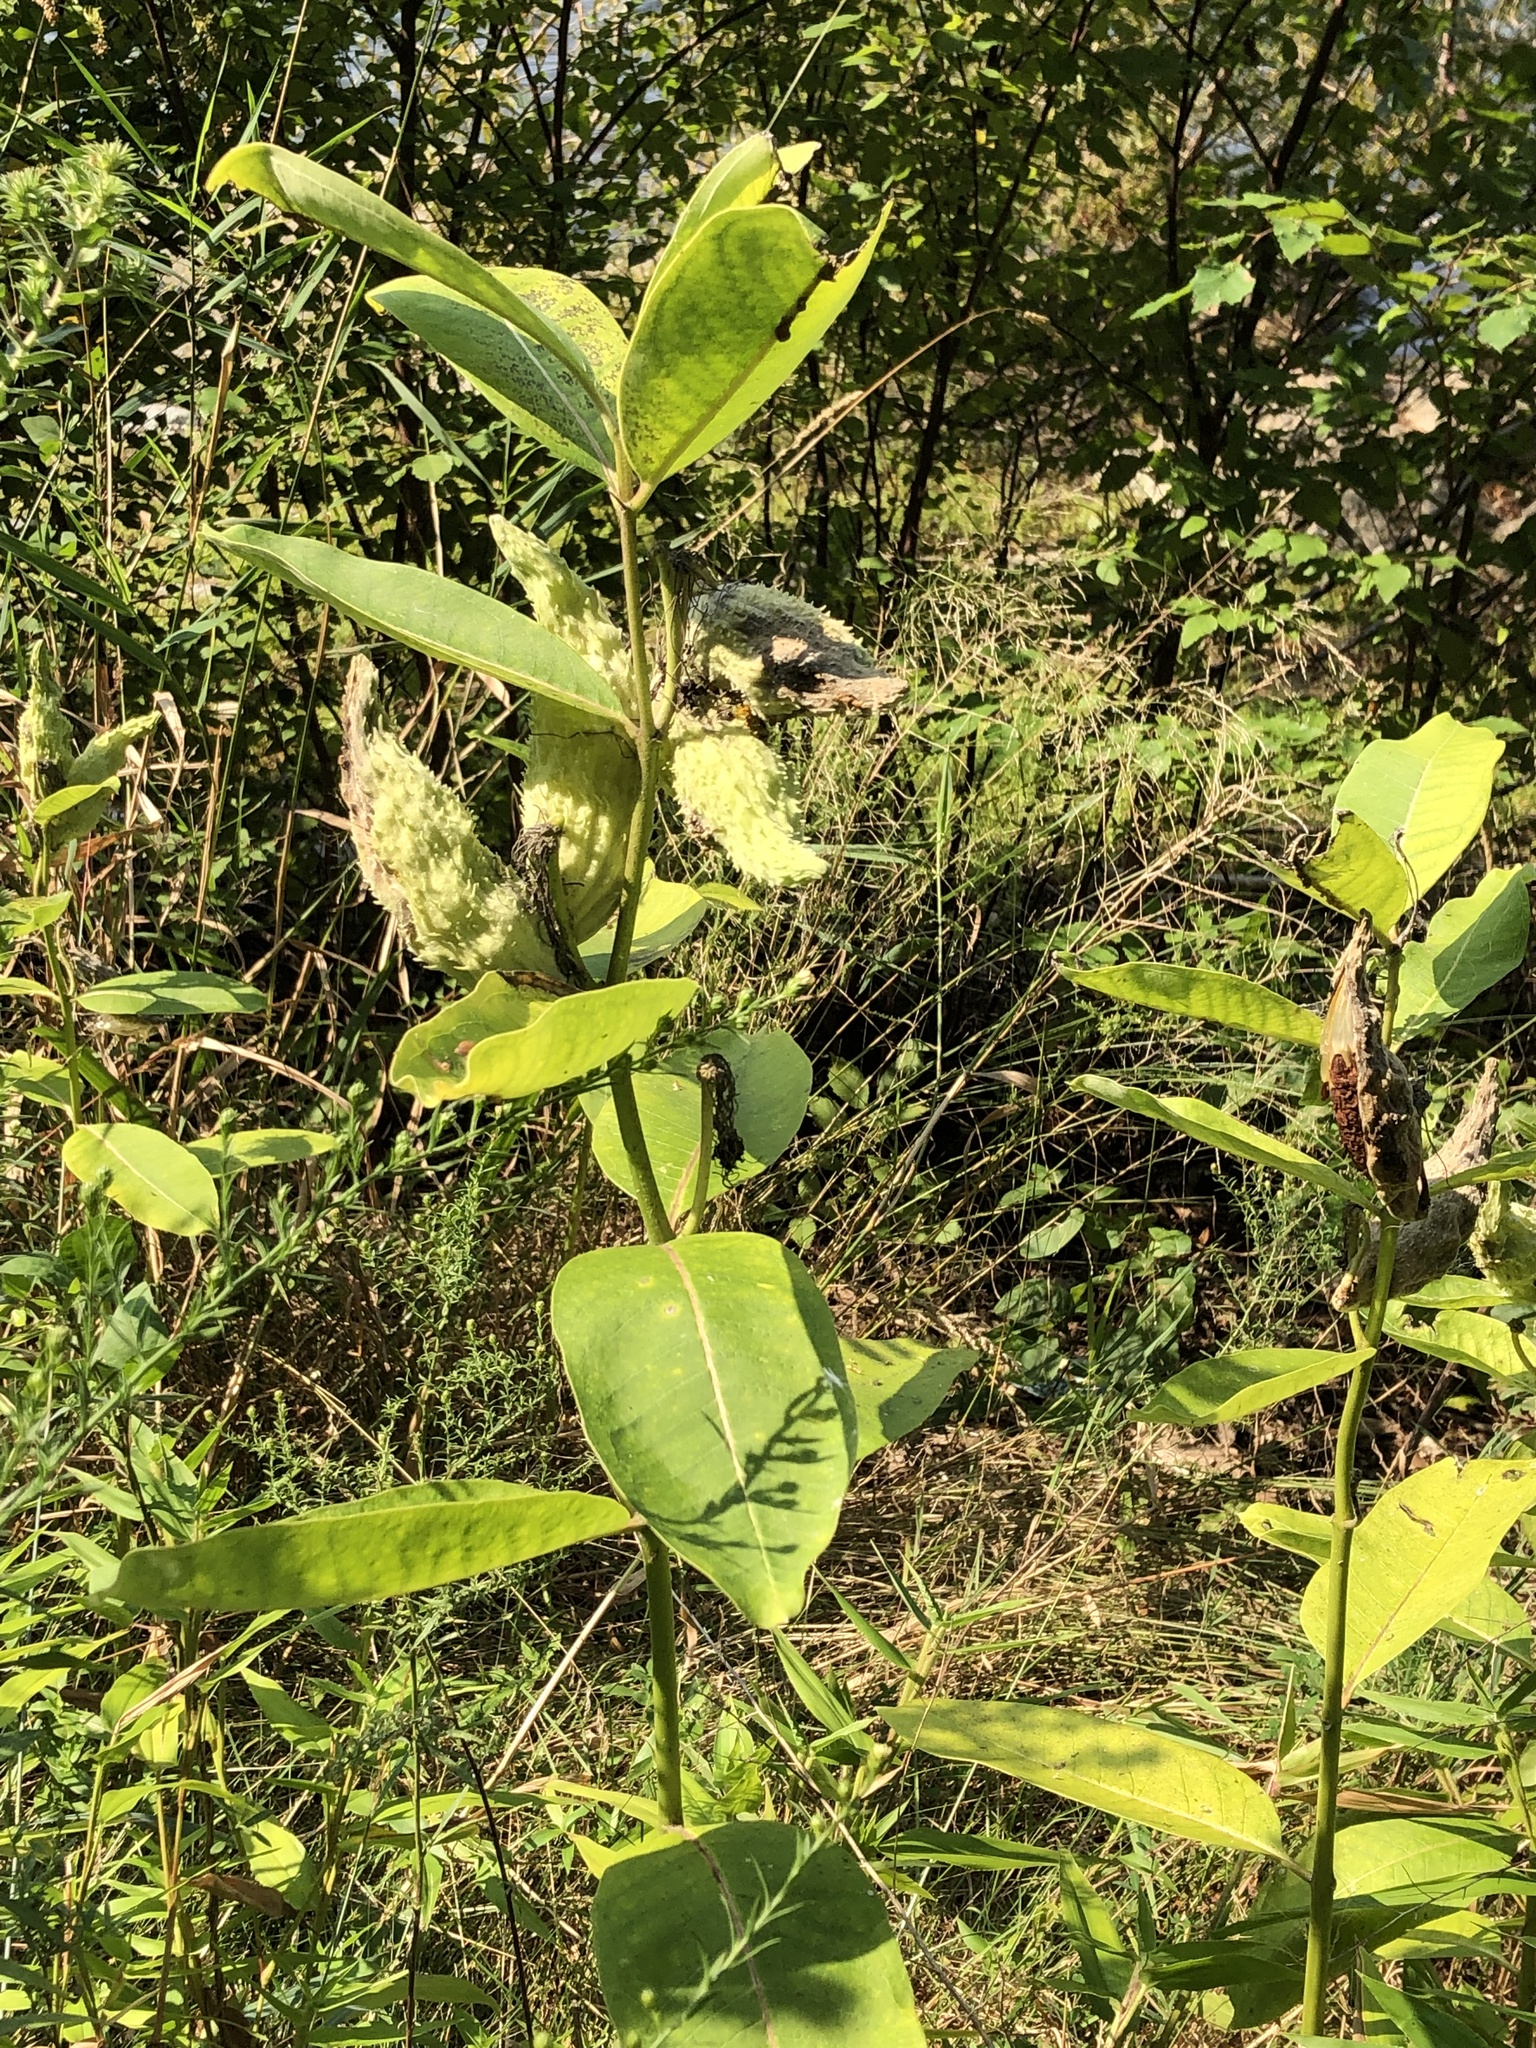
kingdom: Plantae
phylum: Tracheophyta
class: Magnoliopsida
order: Gentianales
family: Apocynaceae
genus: Asclepias
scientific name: Asclepias syriaca
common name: Common milkweed
